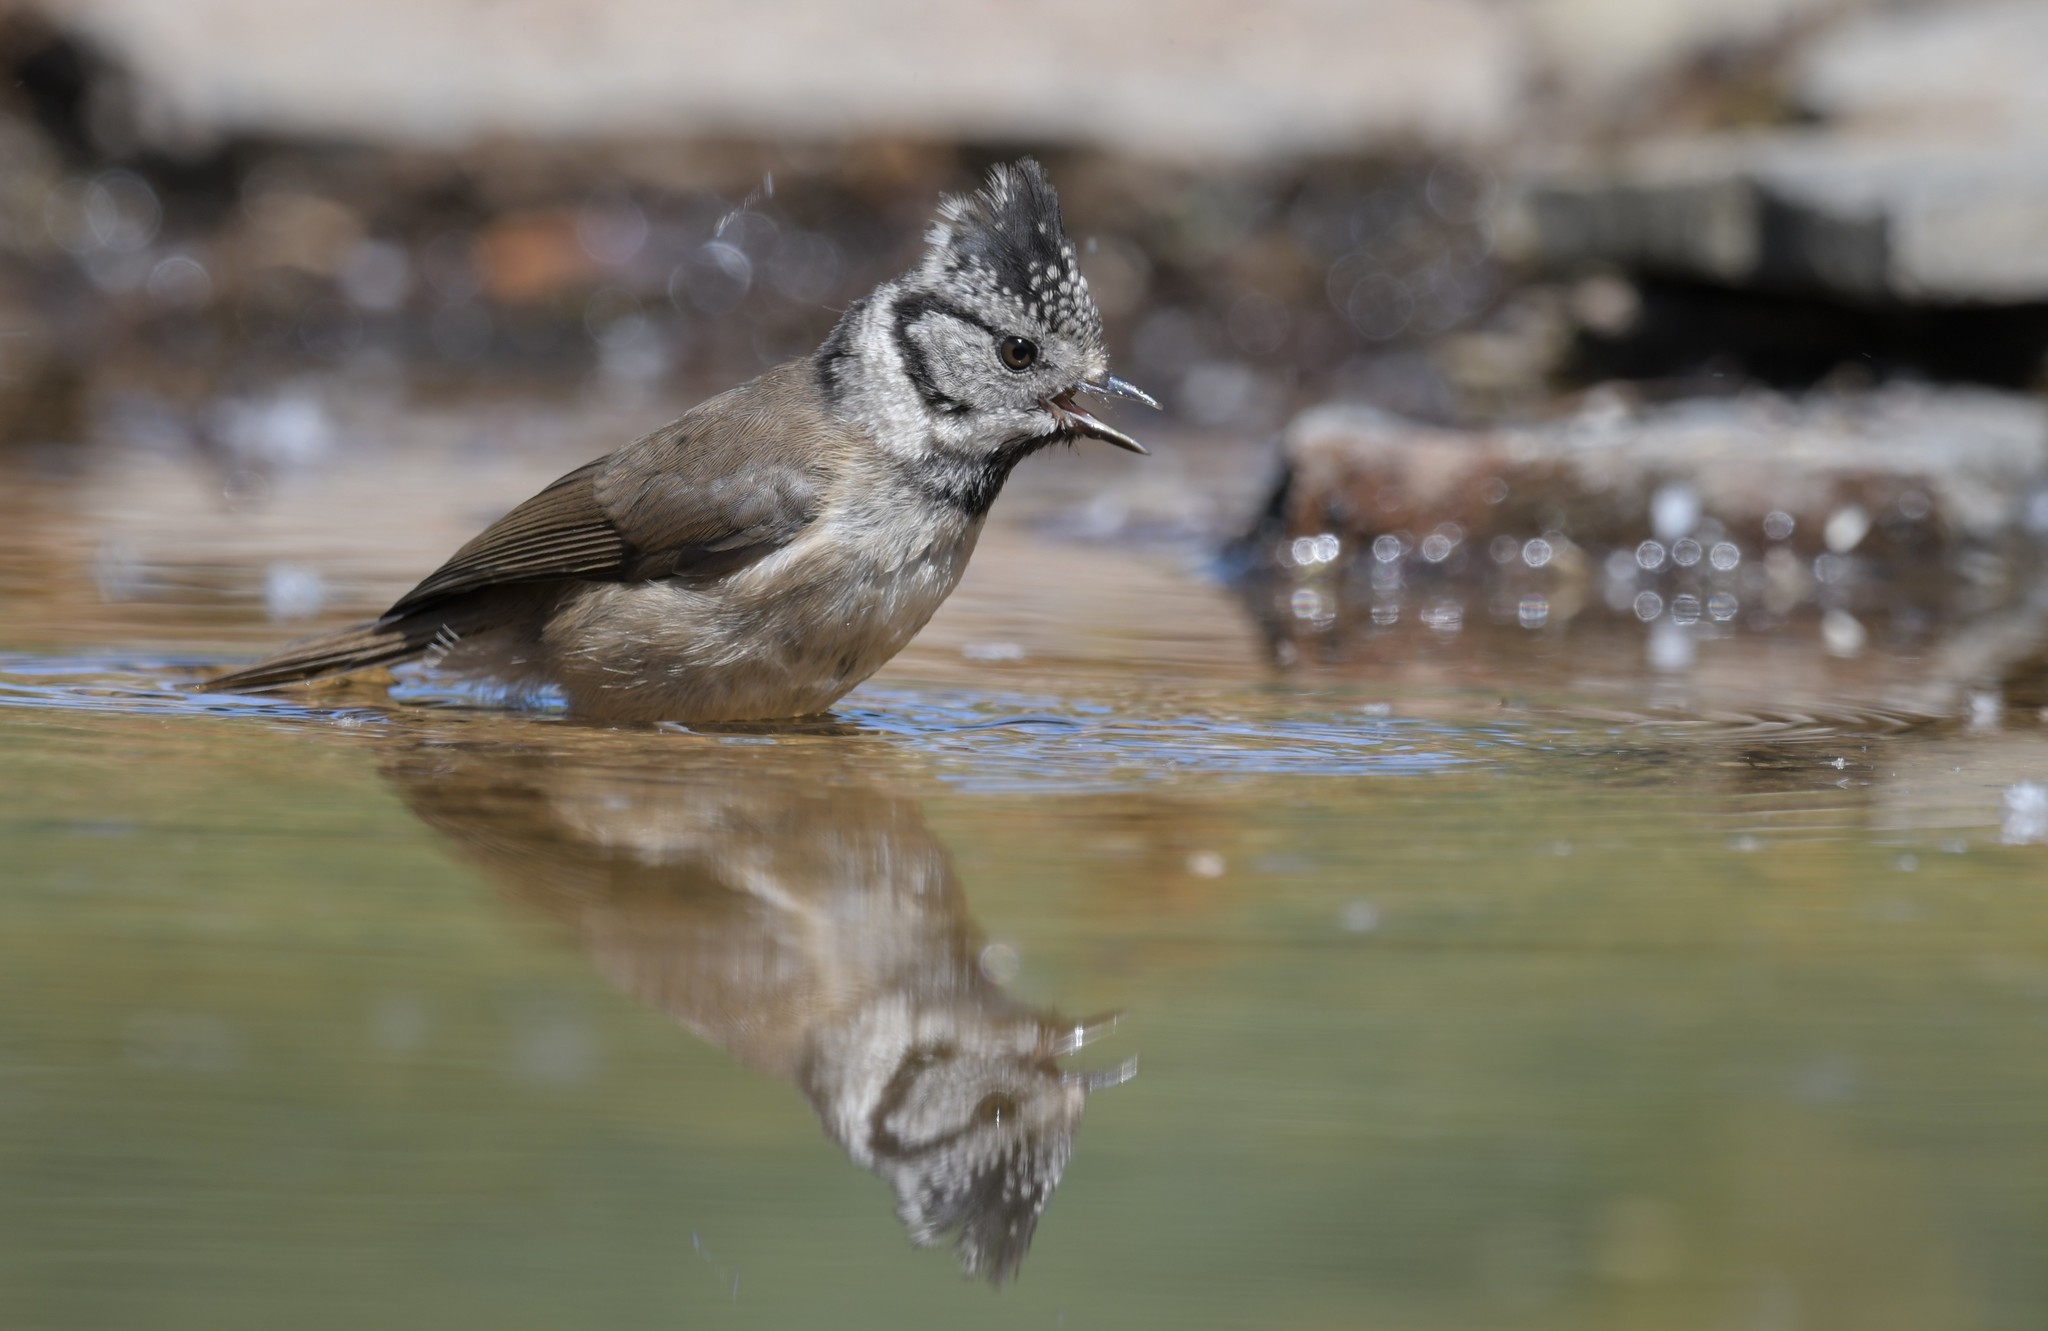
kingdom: Animalia
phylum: Chordata
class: Aves
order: Passeriformes
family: Paridae
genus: Lophophanes
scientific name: Lophophanes cristatus
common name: European crested tit
